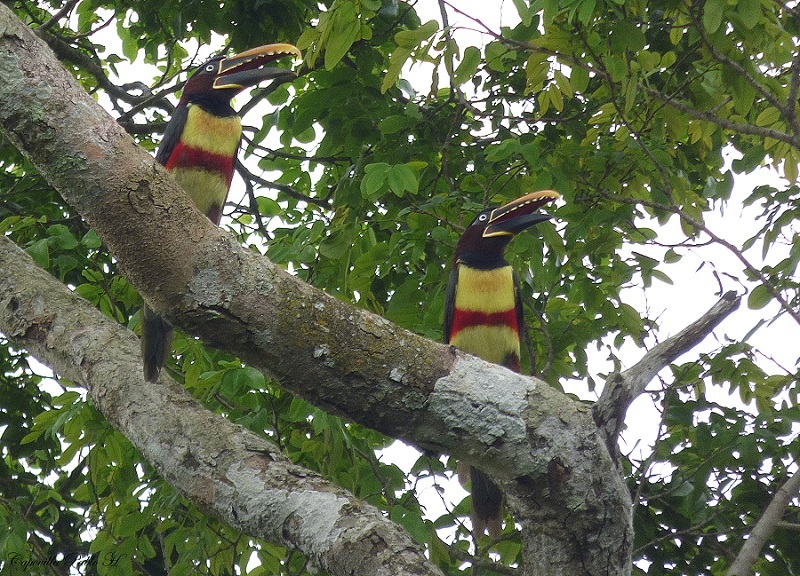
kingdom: Animalia
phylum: Chordata
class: Aves
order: Piciformes
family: Ramphastidae
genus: Pteroglossus
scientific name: Pteroglossus castanotis
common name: Chestnut-eared aracari
